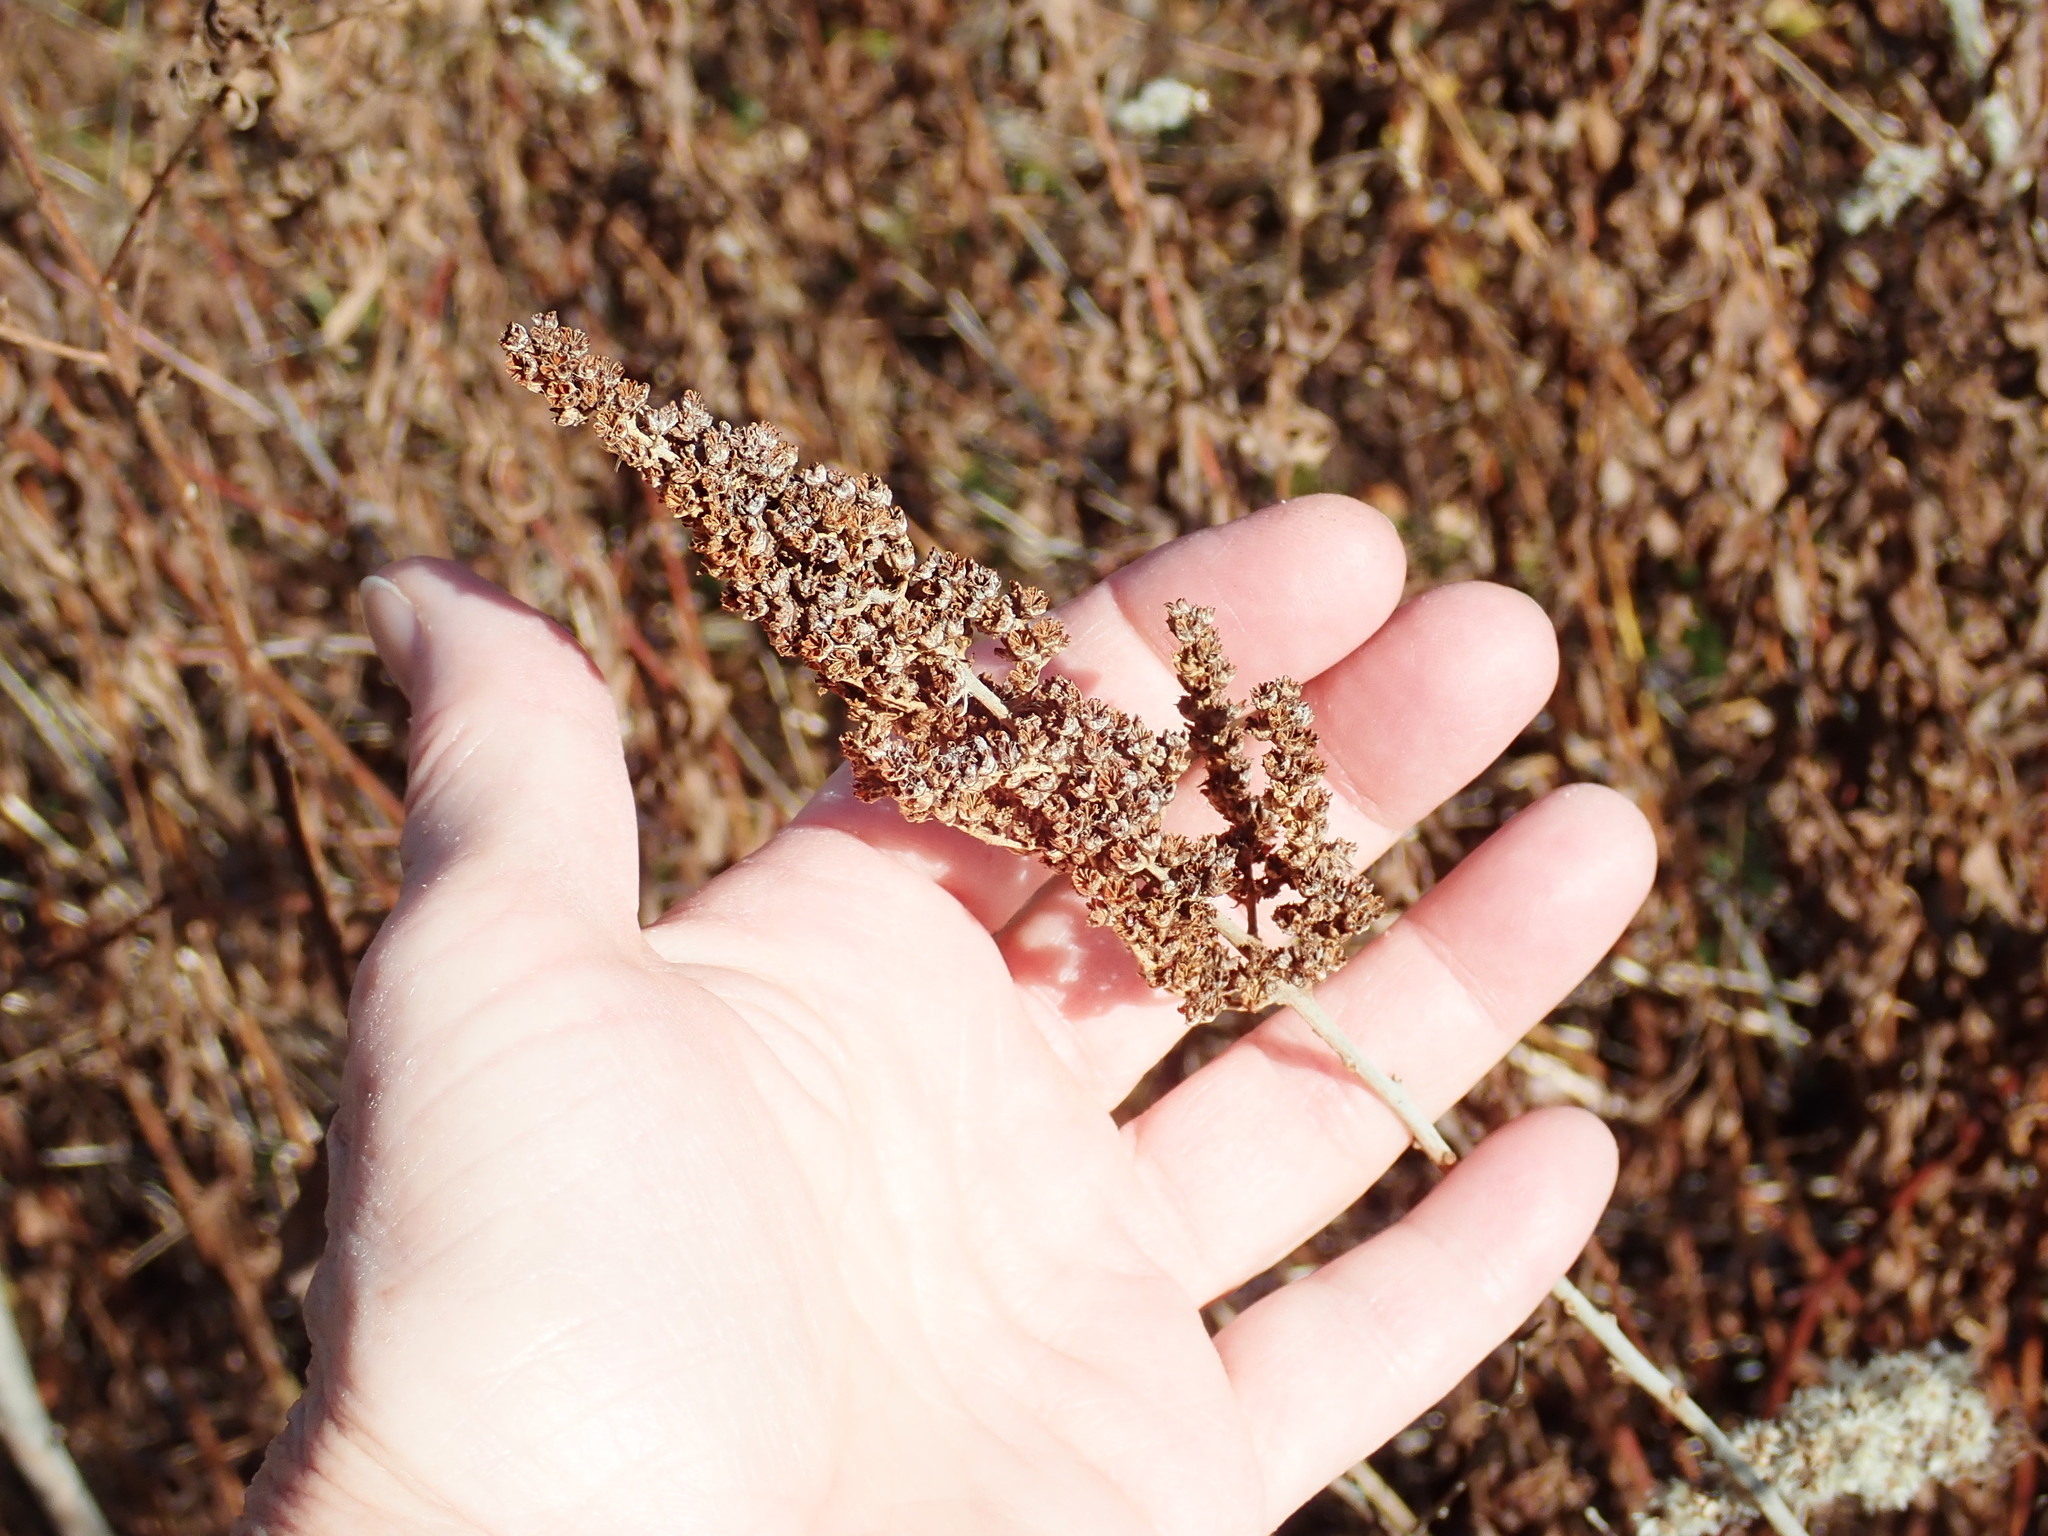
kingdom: Plantae
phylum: Tracheophyta
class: Magnoliopsida
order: Rosales
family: Rosaceae
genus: Spiraea
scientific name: Spiraea tomentosa
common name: Hardhack
